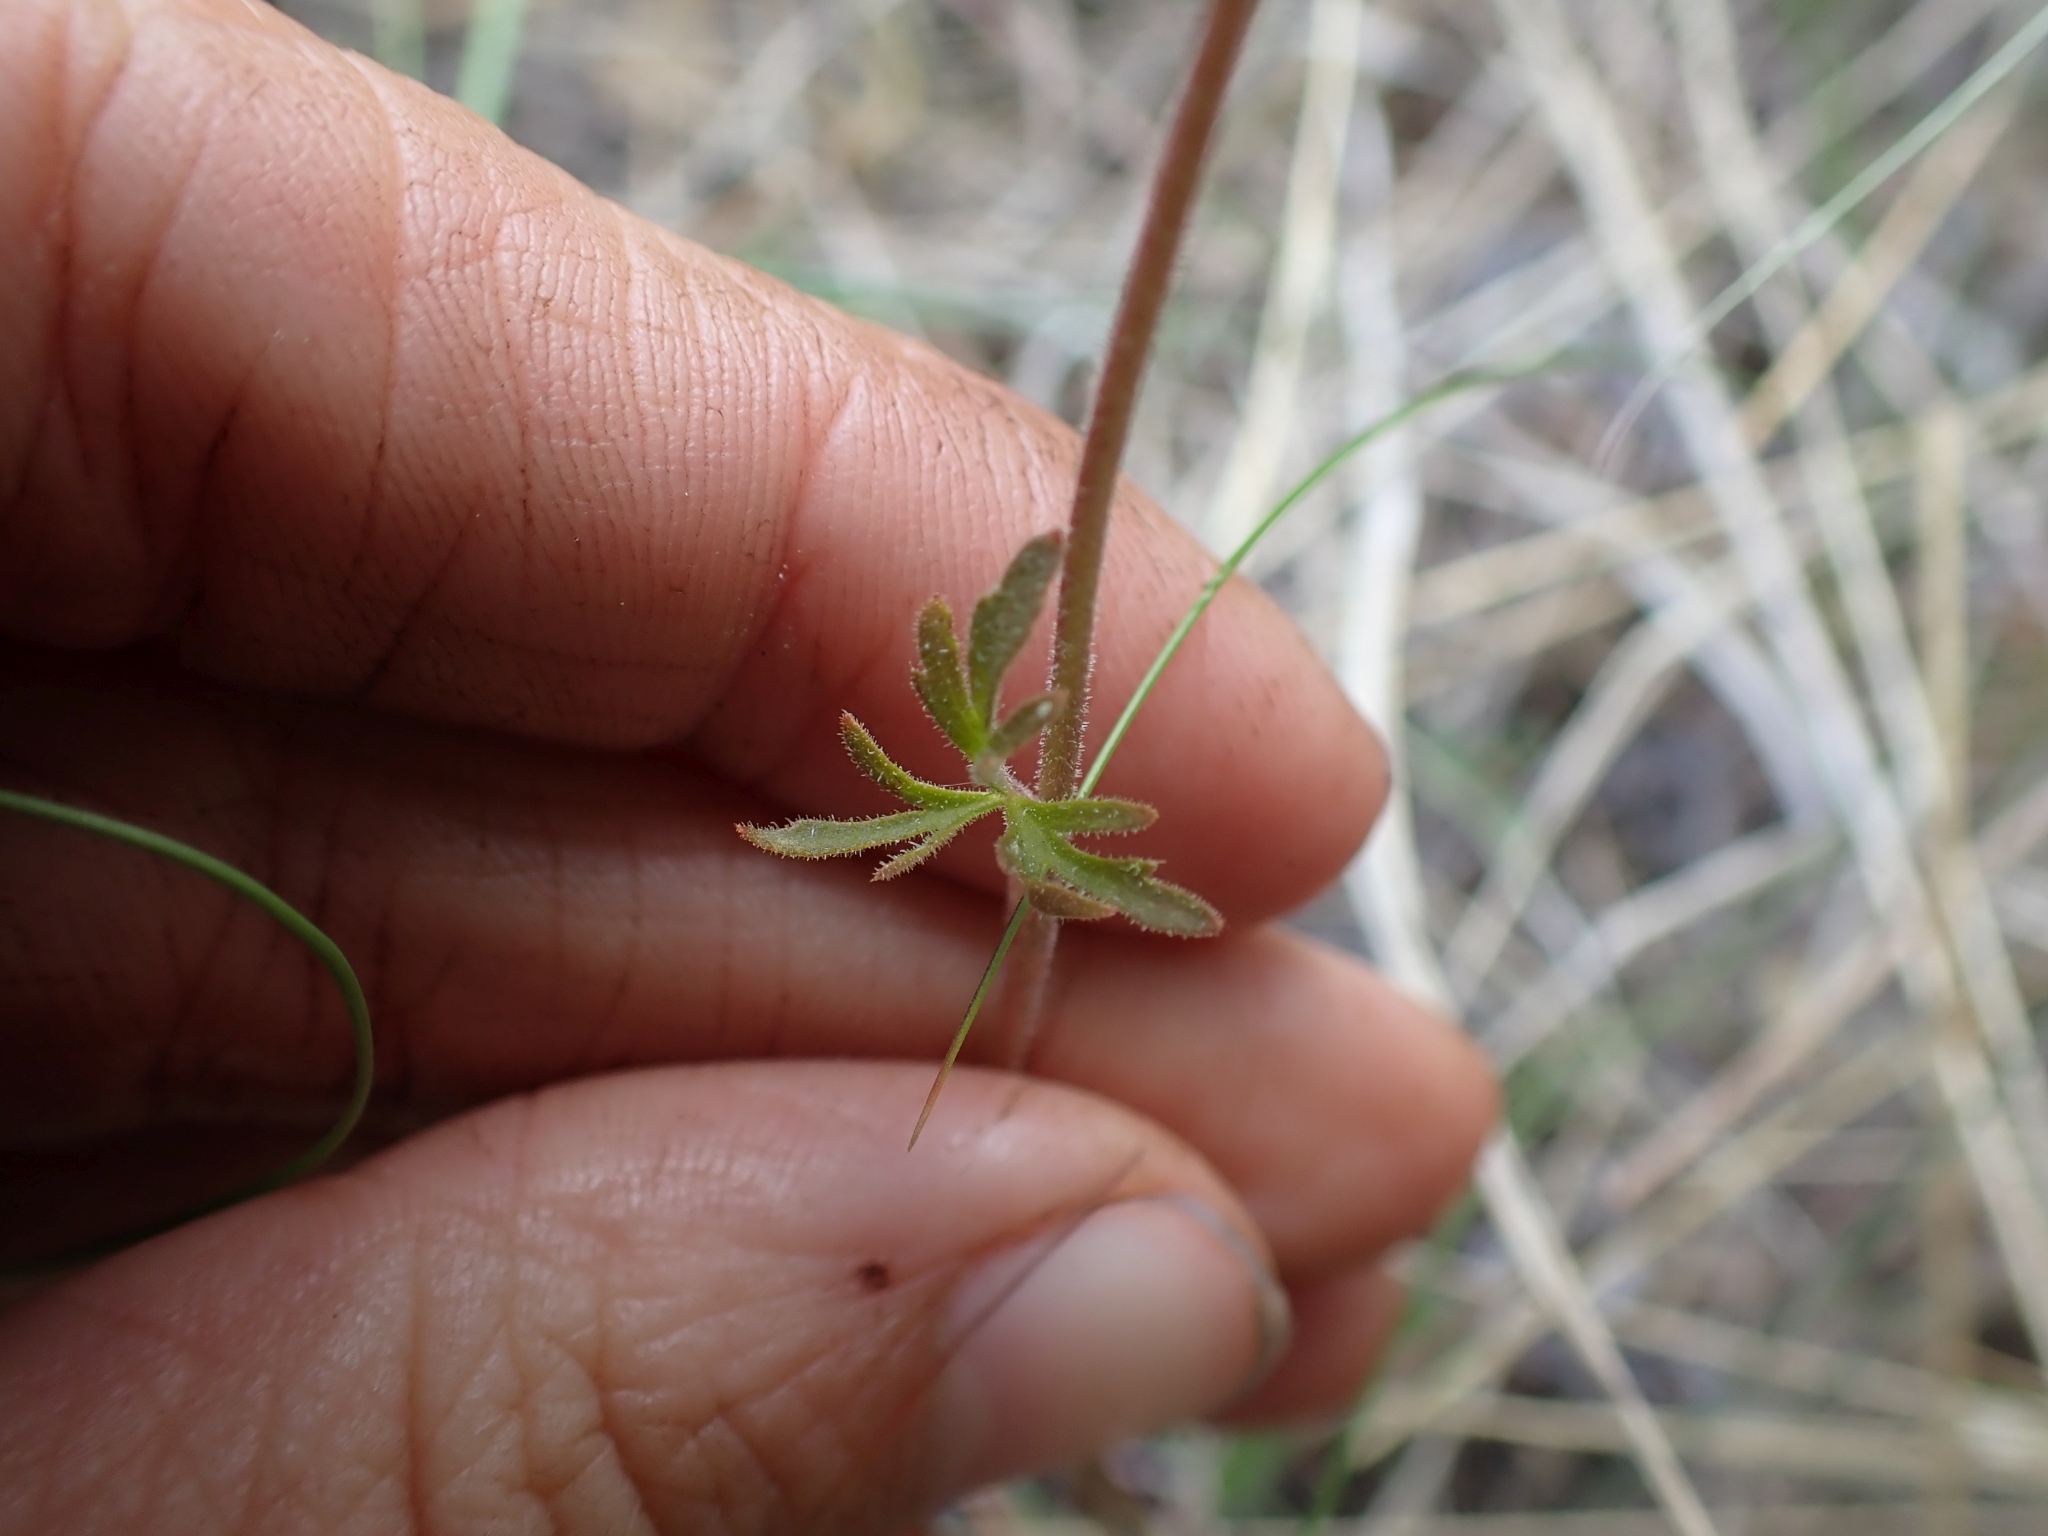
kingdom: Plantae
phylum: Tracheophyta
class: Magnoliopsida
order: Saxifragales
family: Saxifragaceae
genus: Lithophragma
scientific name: Lithophragma parviflorum
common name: Small-flowered fringe-cup
